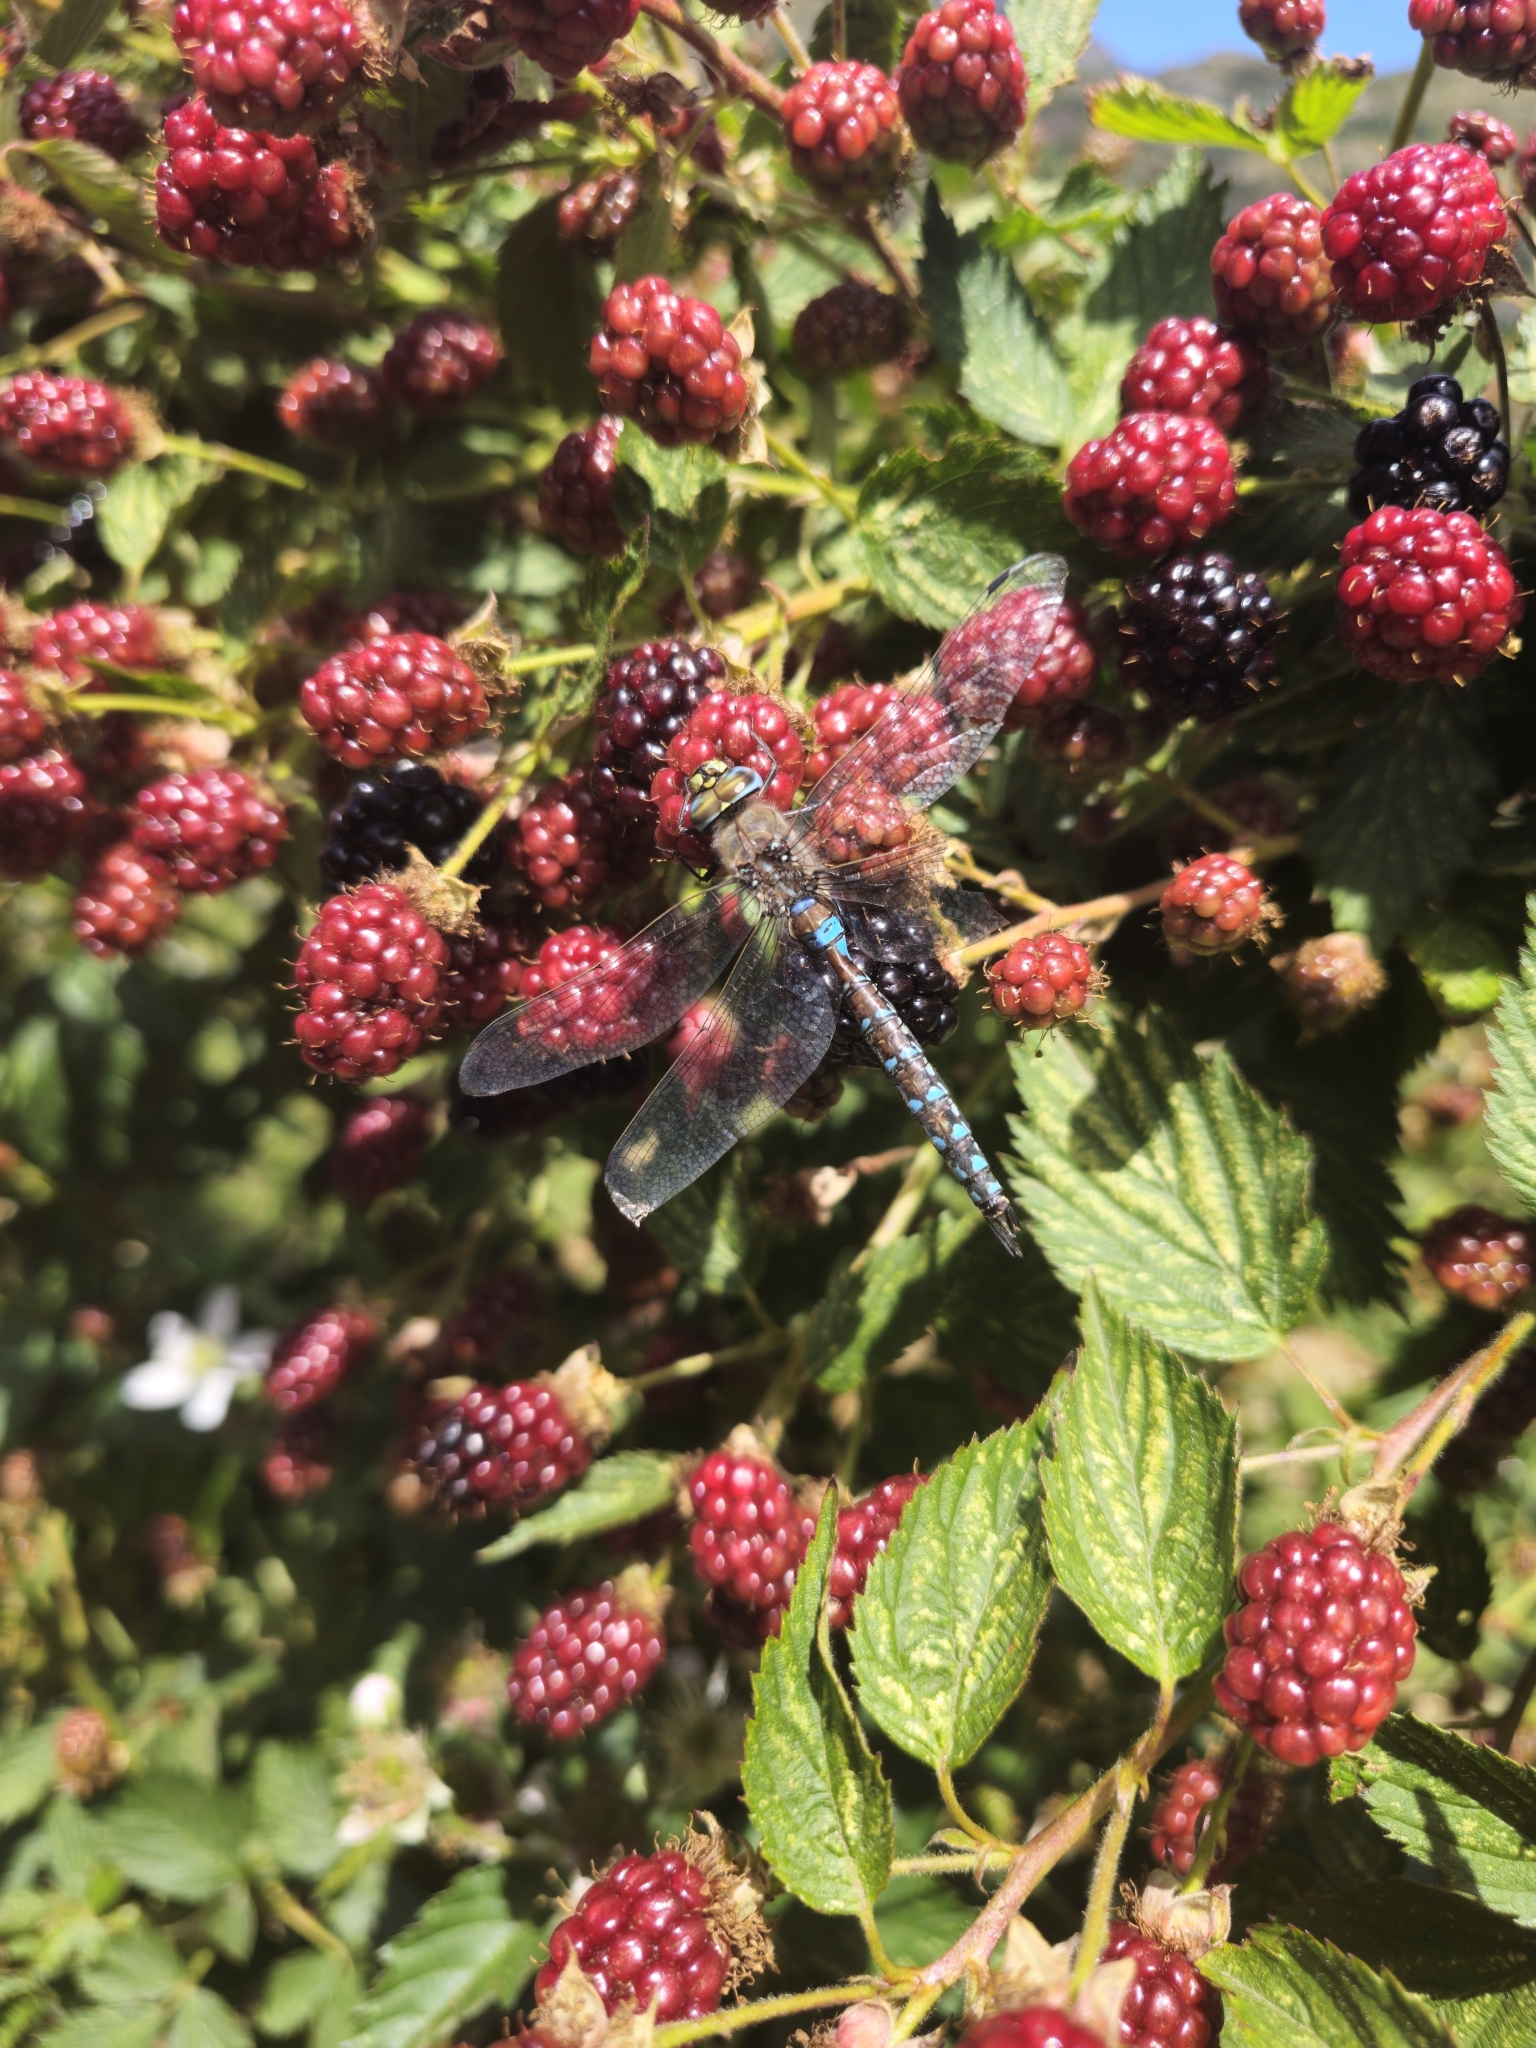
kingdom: Animalia
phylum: Arthropoda
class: Insecta
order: Odonata
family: Aeshnidae
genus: Rhionaeschna
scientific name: Rhionaeschna diffinis
